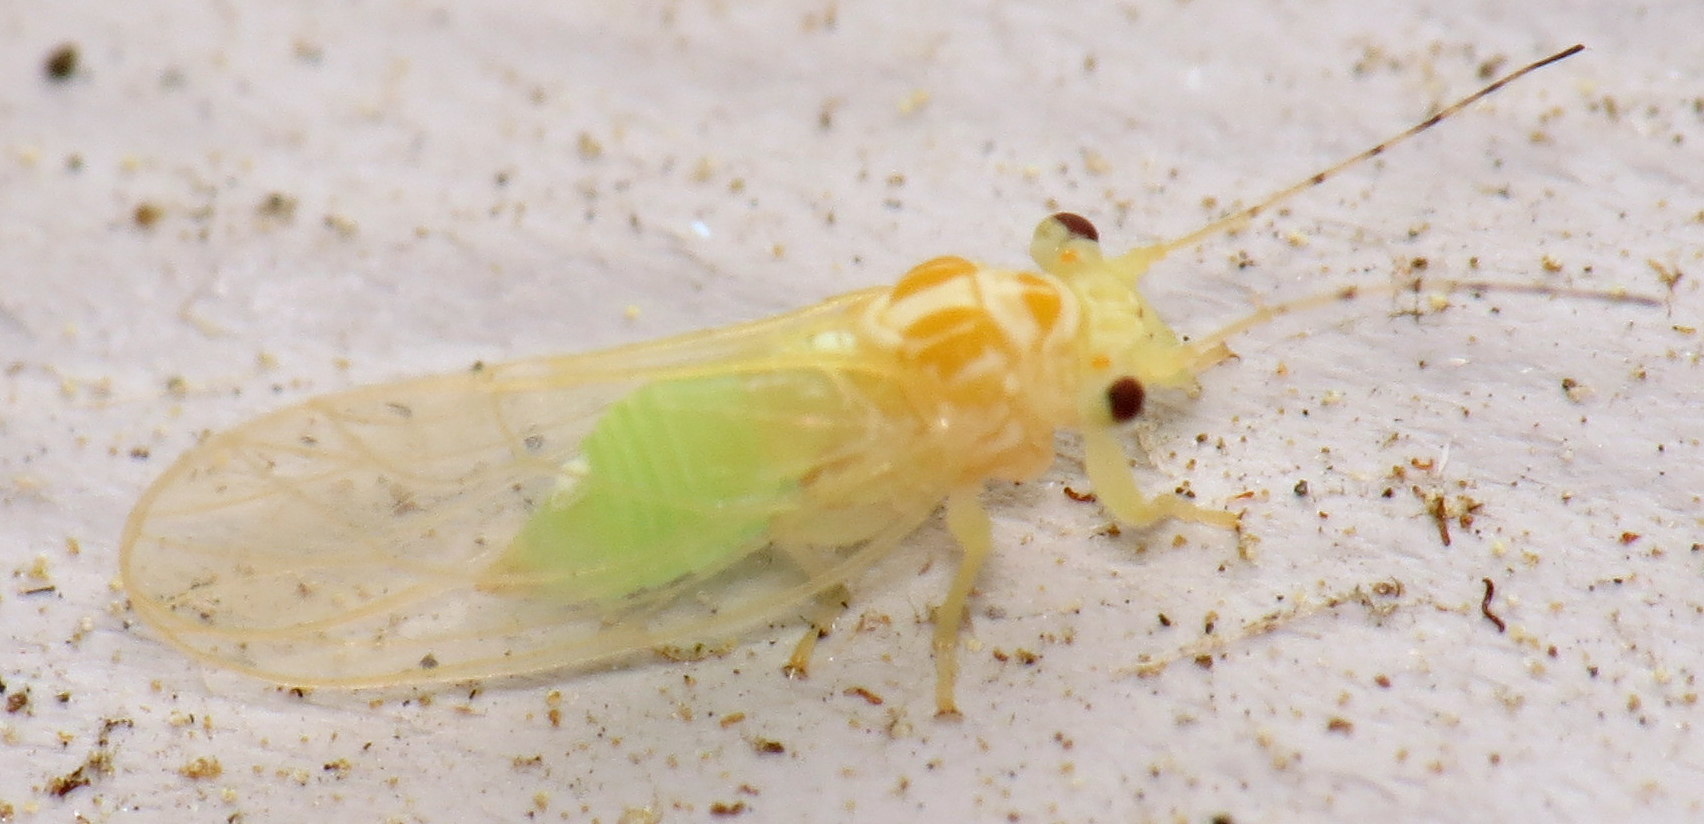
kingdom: Animalia
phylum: Arthropoda
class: Insecta
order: Hemiptera
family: Psyllidae
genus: Cacopsylla
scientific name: Cacopsylla annulata
